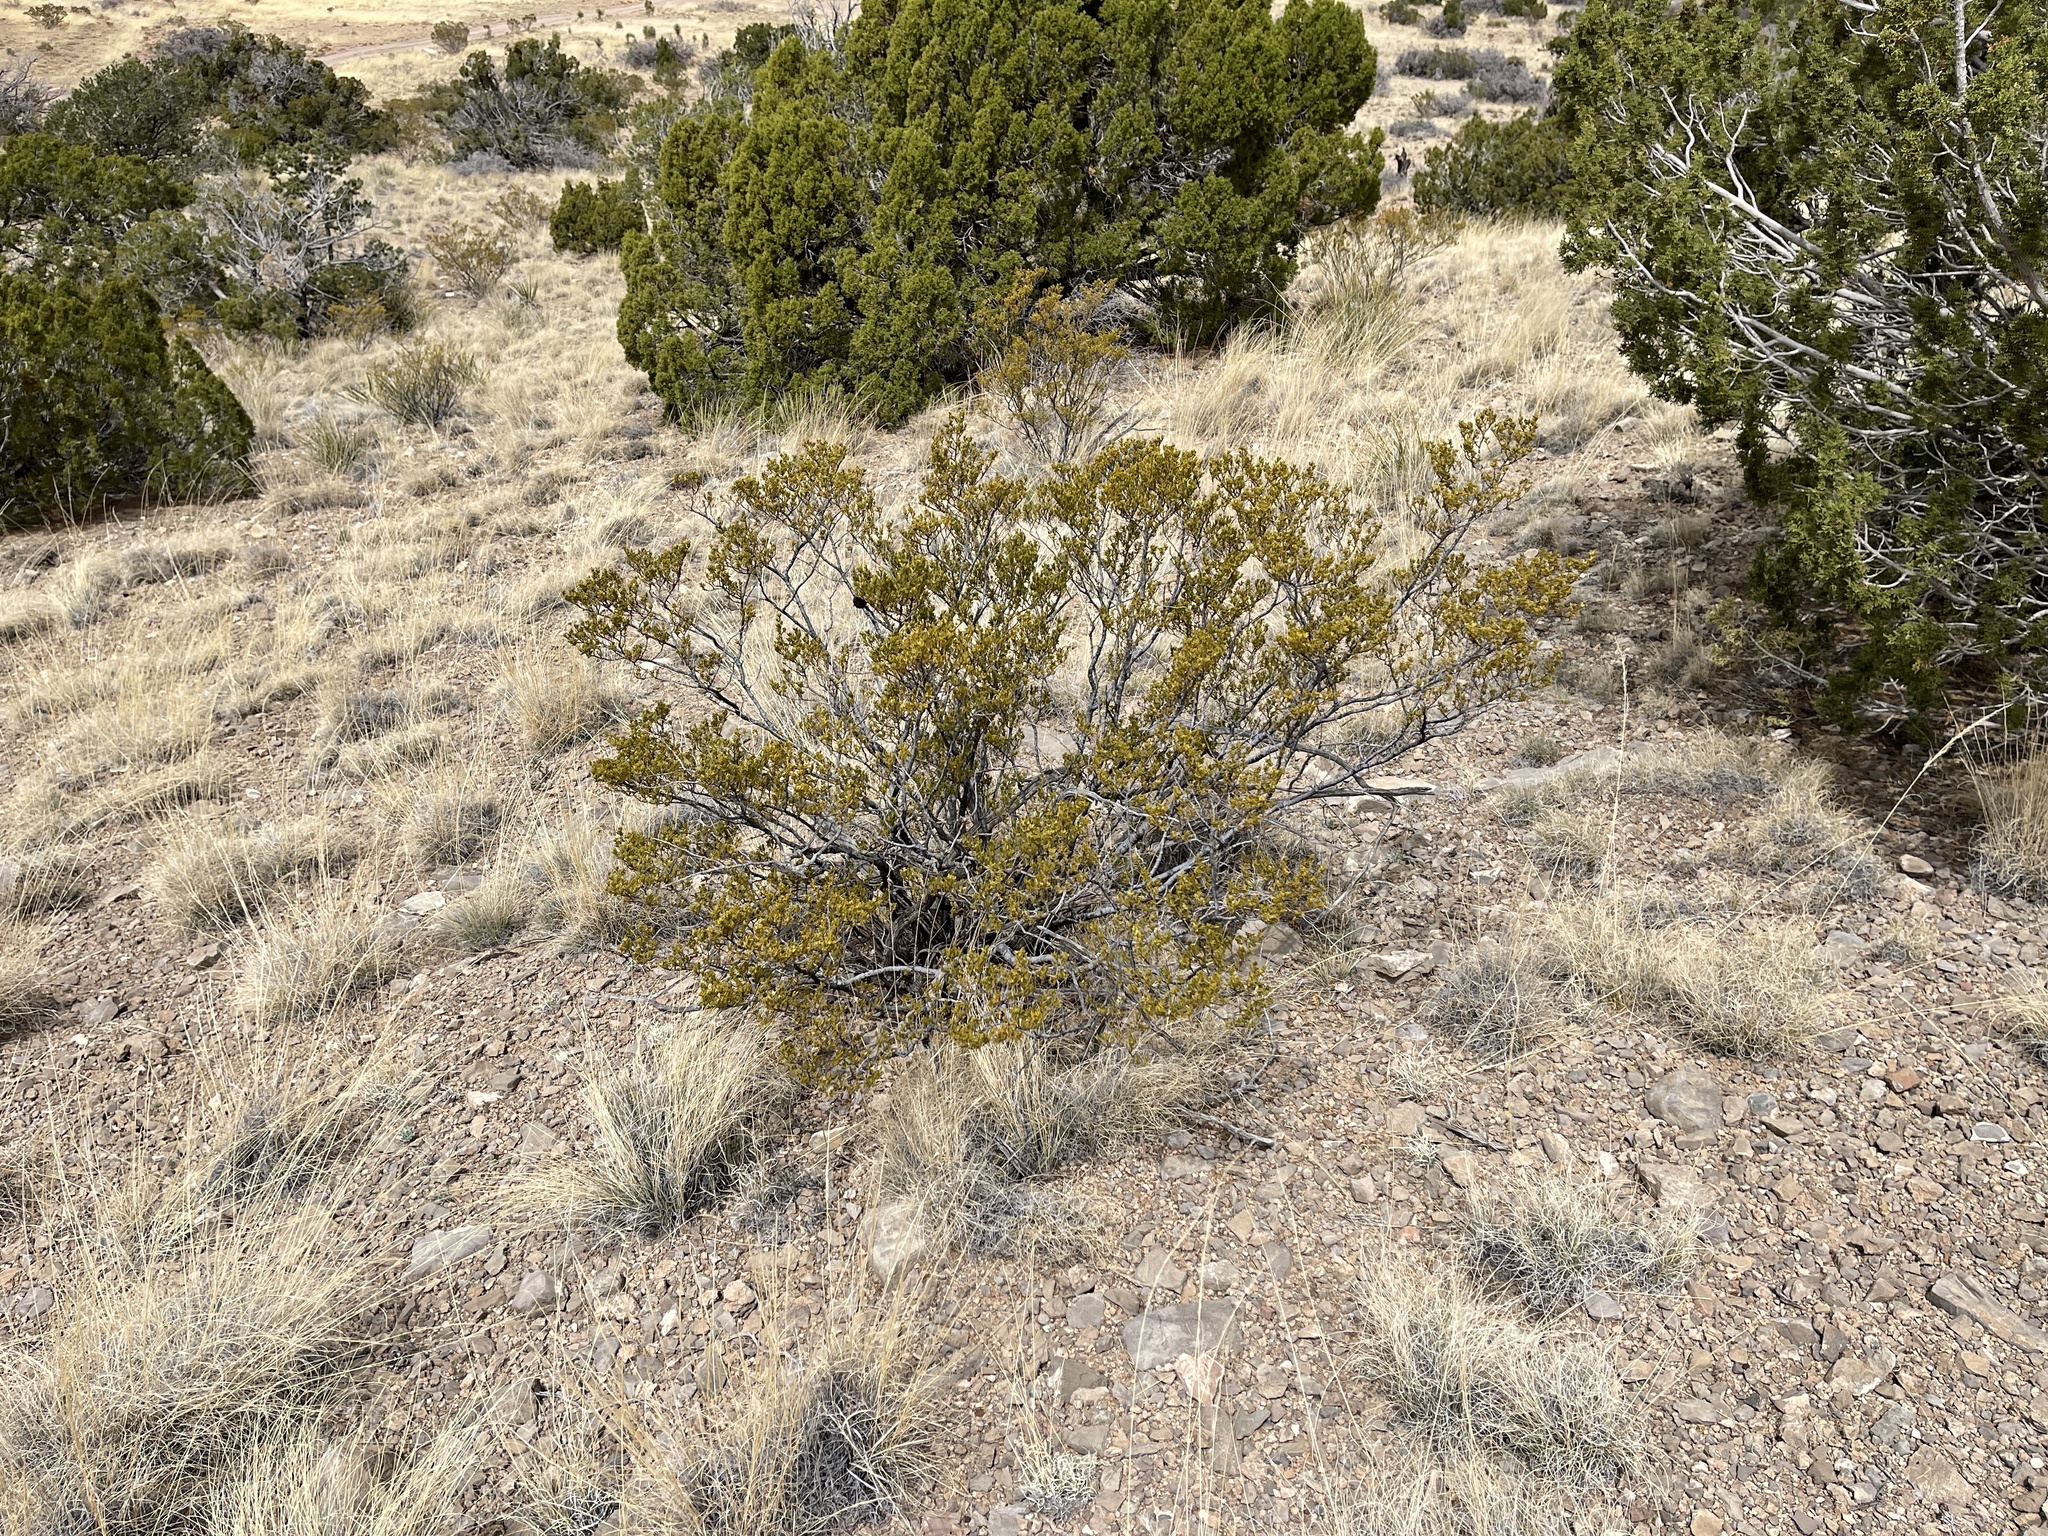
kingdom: Plantae
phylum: Tracheophyta
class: Magnoliopsida
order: Zygophyllales
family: Zygophyllaceae
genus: Larrea
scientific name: Larrea tridentata
